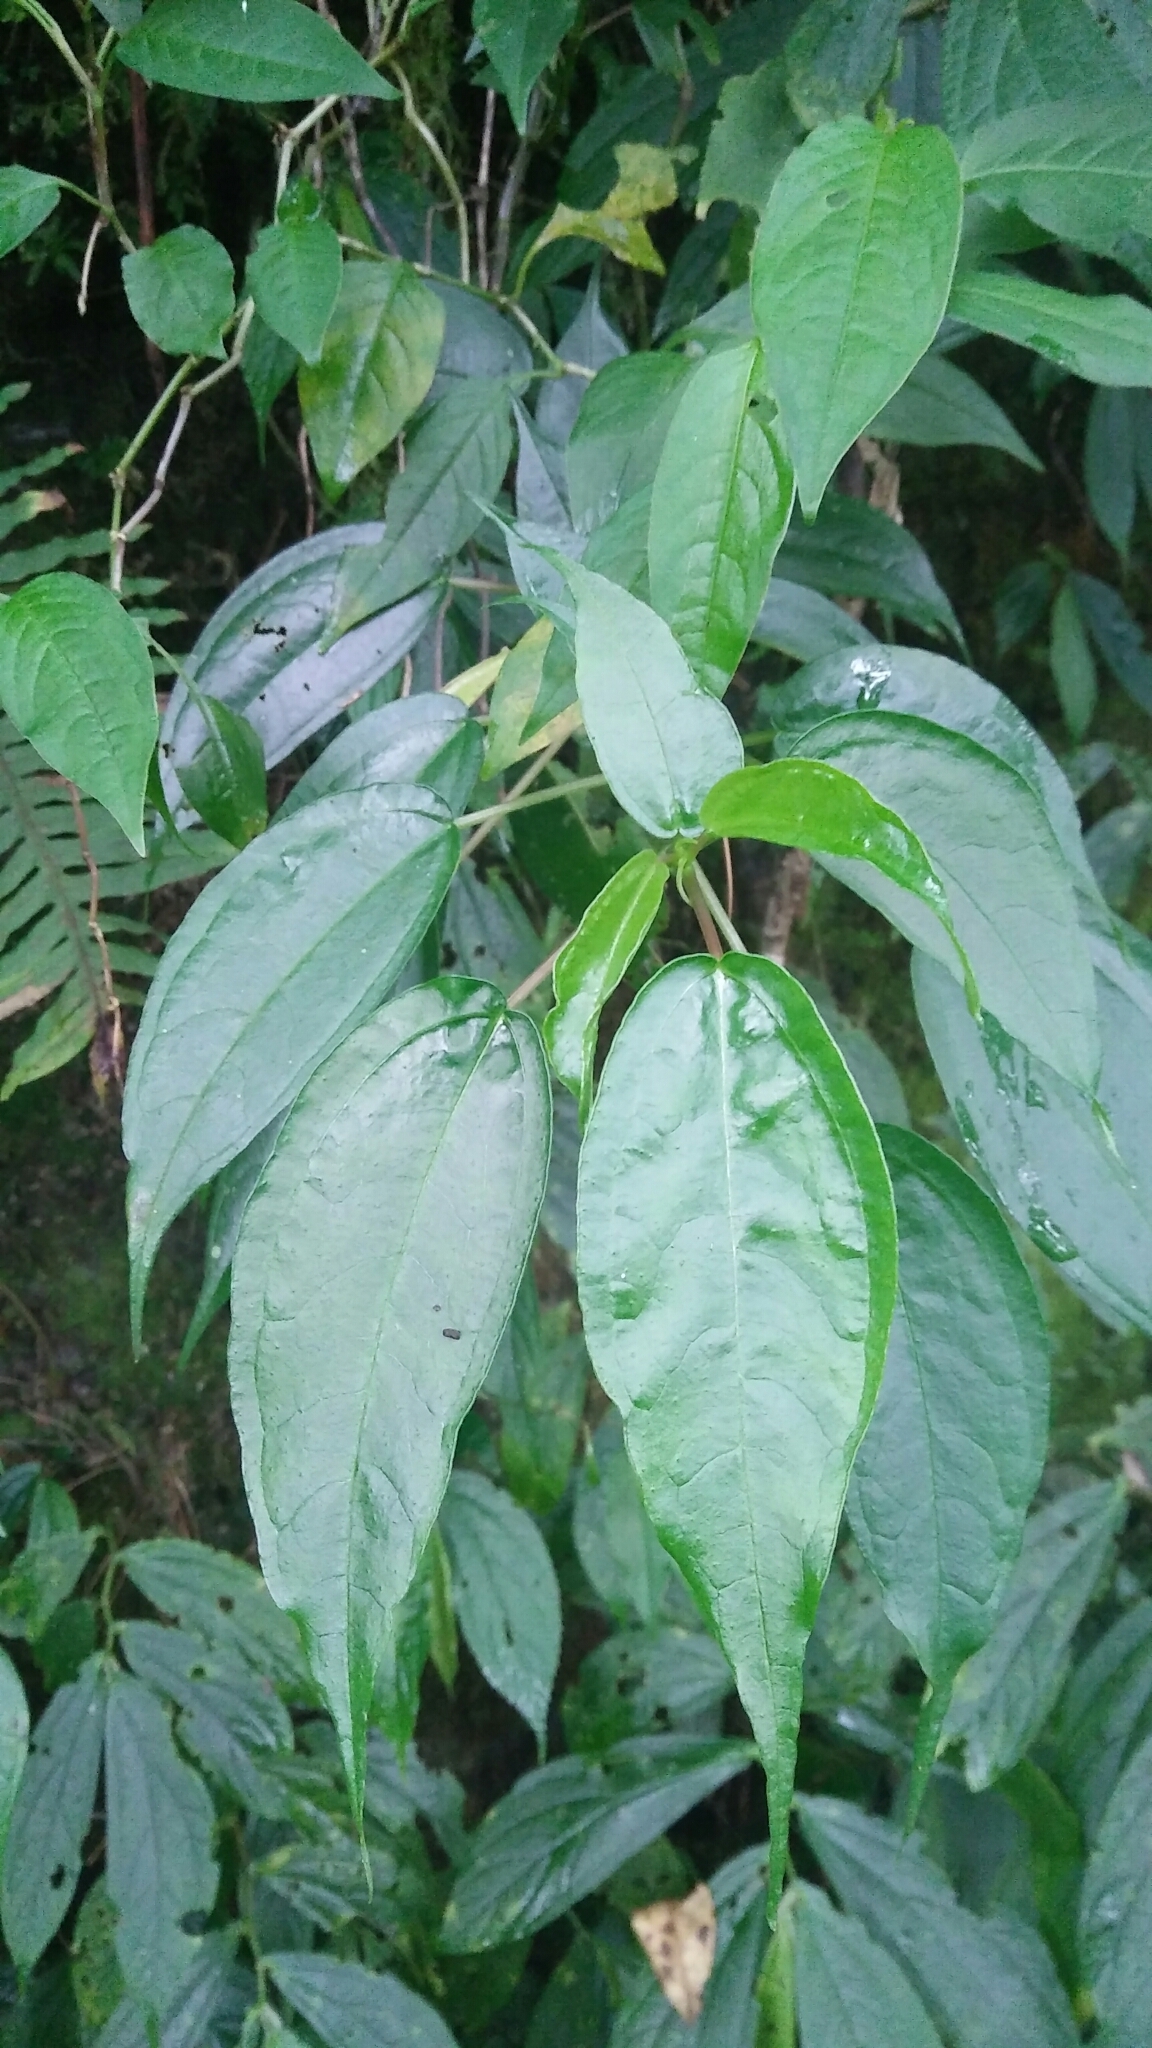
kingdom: Plantae
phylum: Tracheophyta
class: Magnoliopsida
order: Rosales
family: Urticaceae
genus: Pilea
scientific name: Pilea plataniflora
